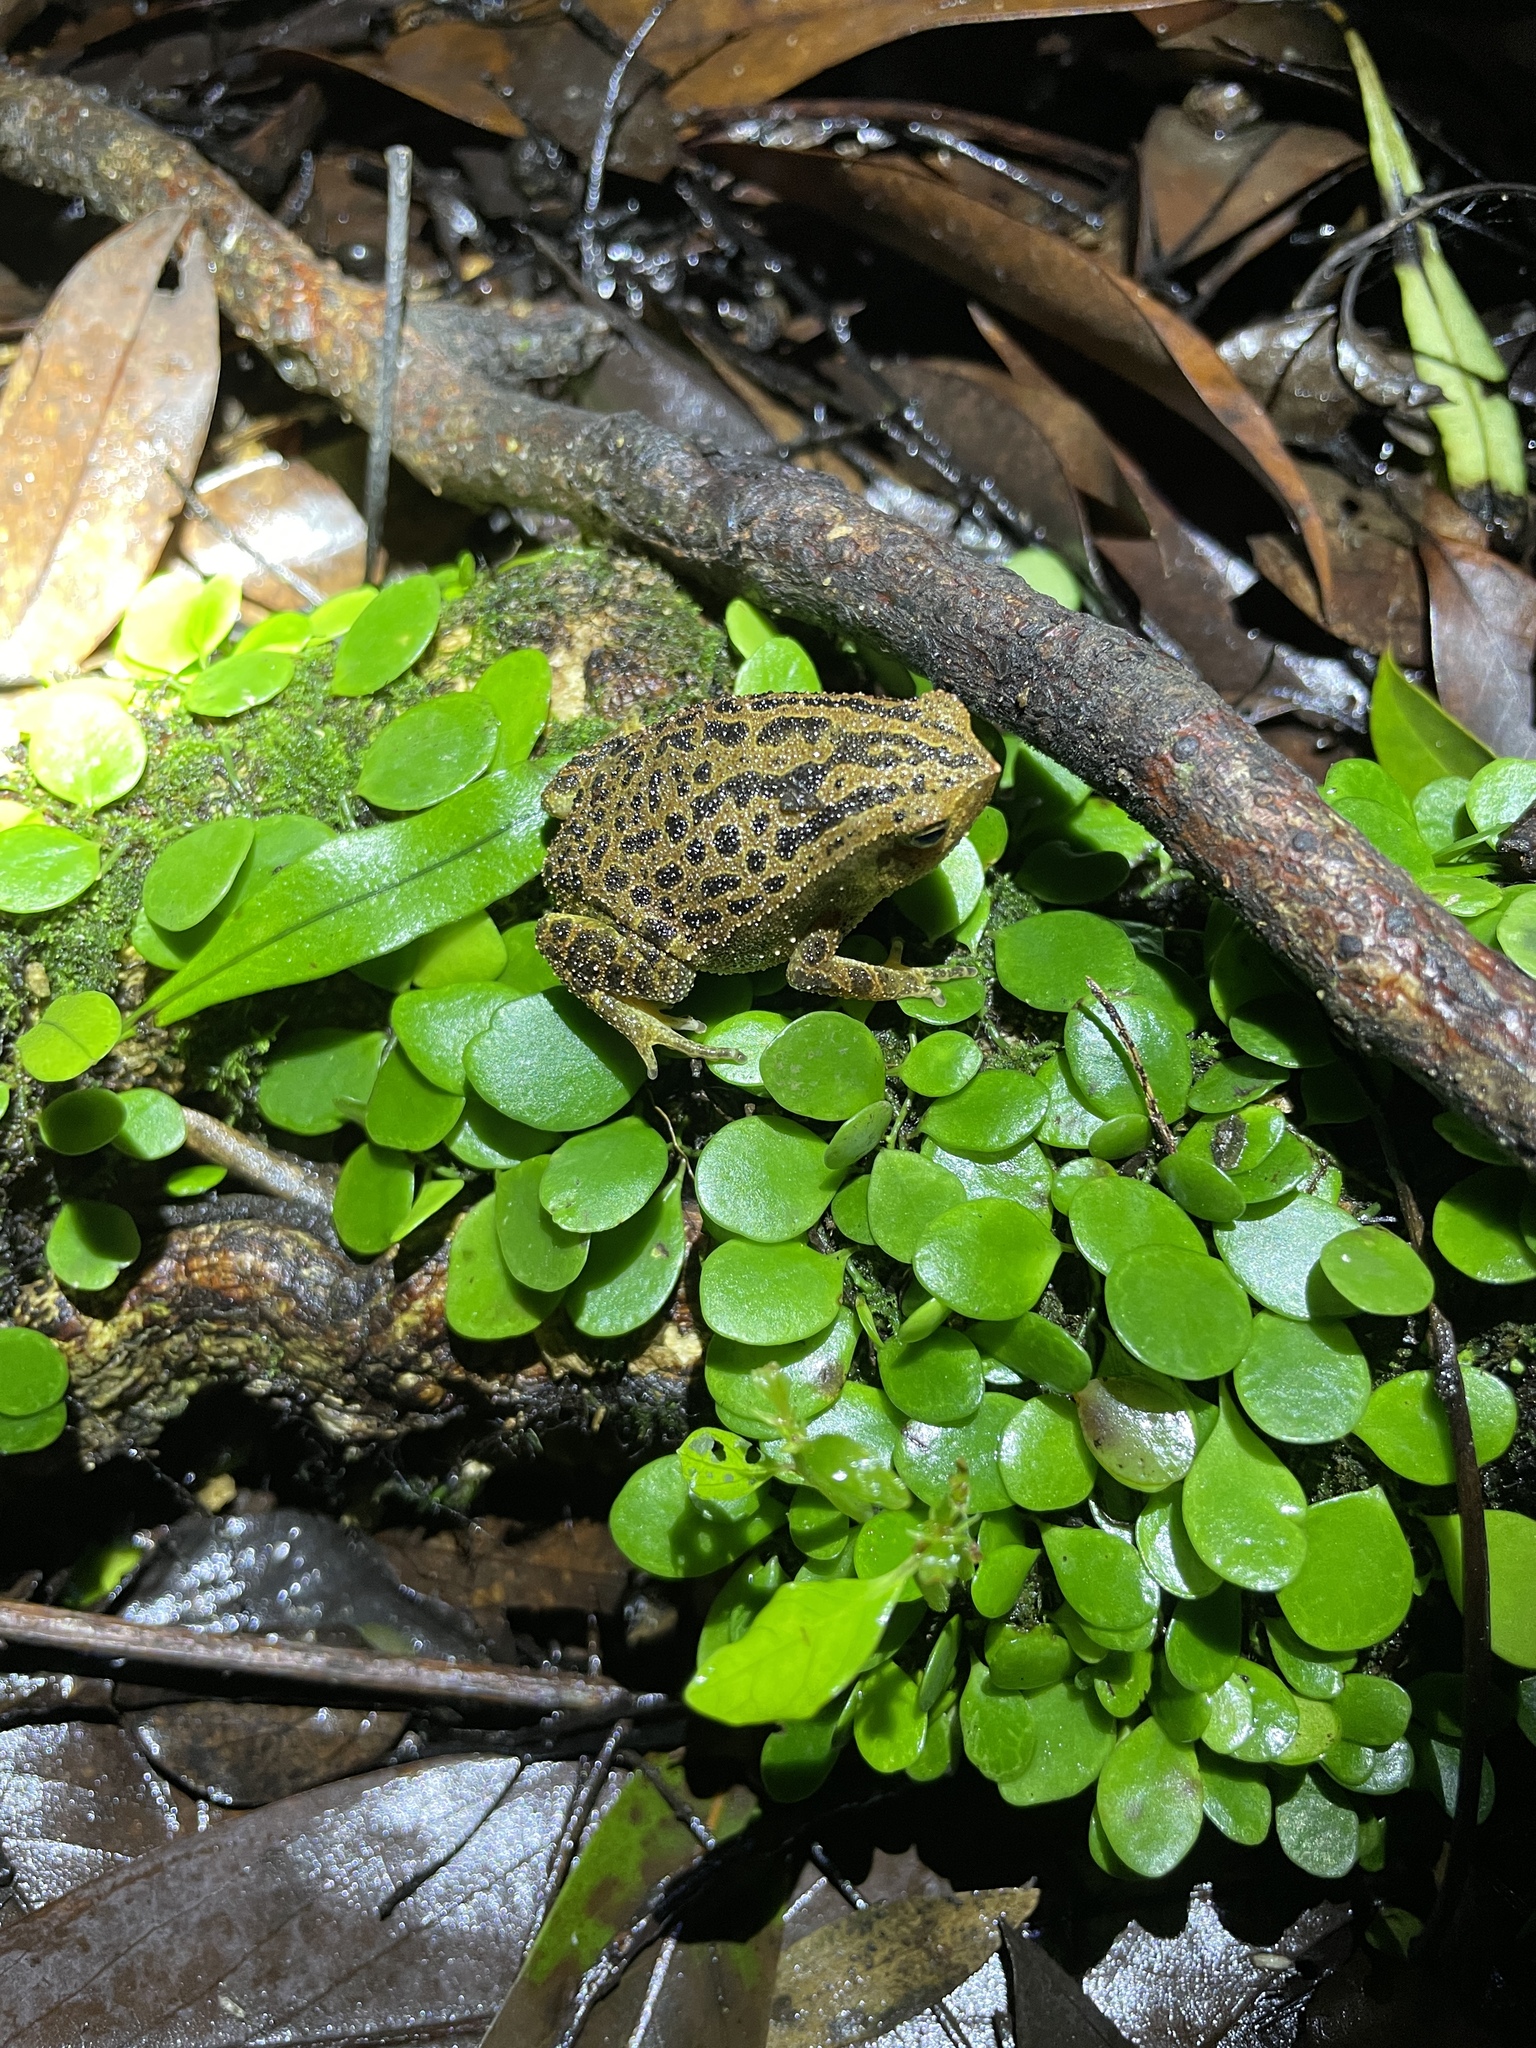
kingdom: Animalia
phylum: Chordata
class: Amphibia
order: Anura
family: Microhylidae
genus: Kalophrynus
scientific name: Kalophrynus interlineatus
